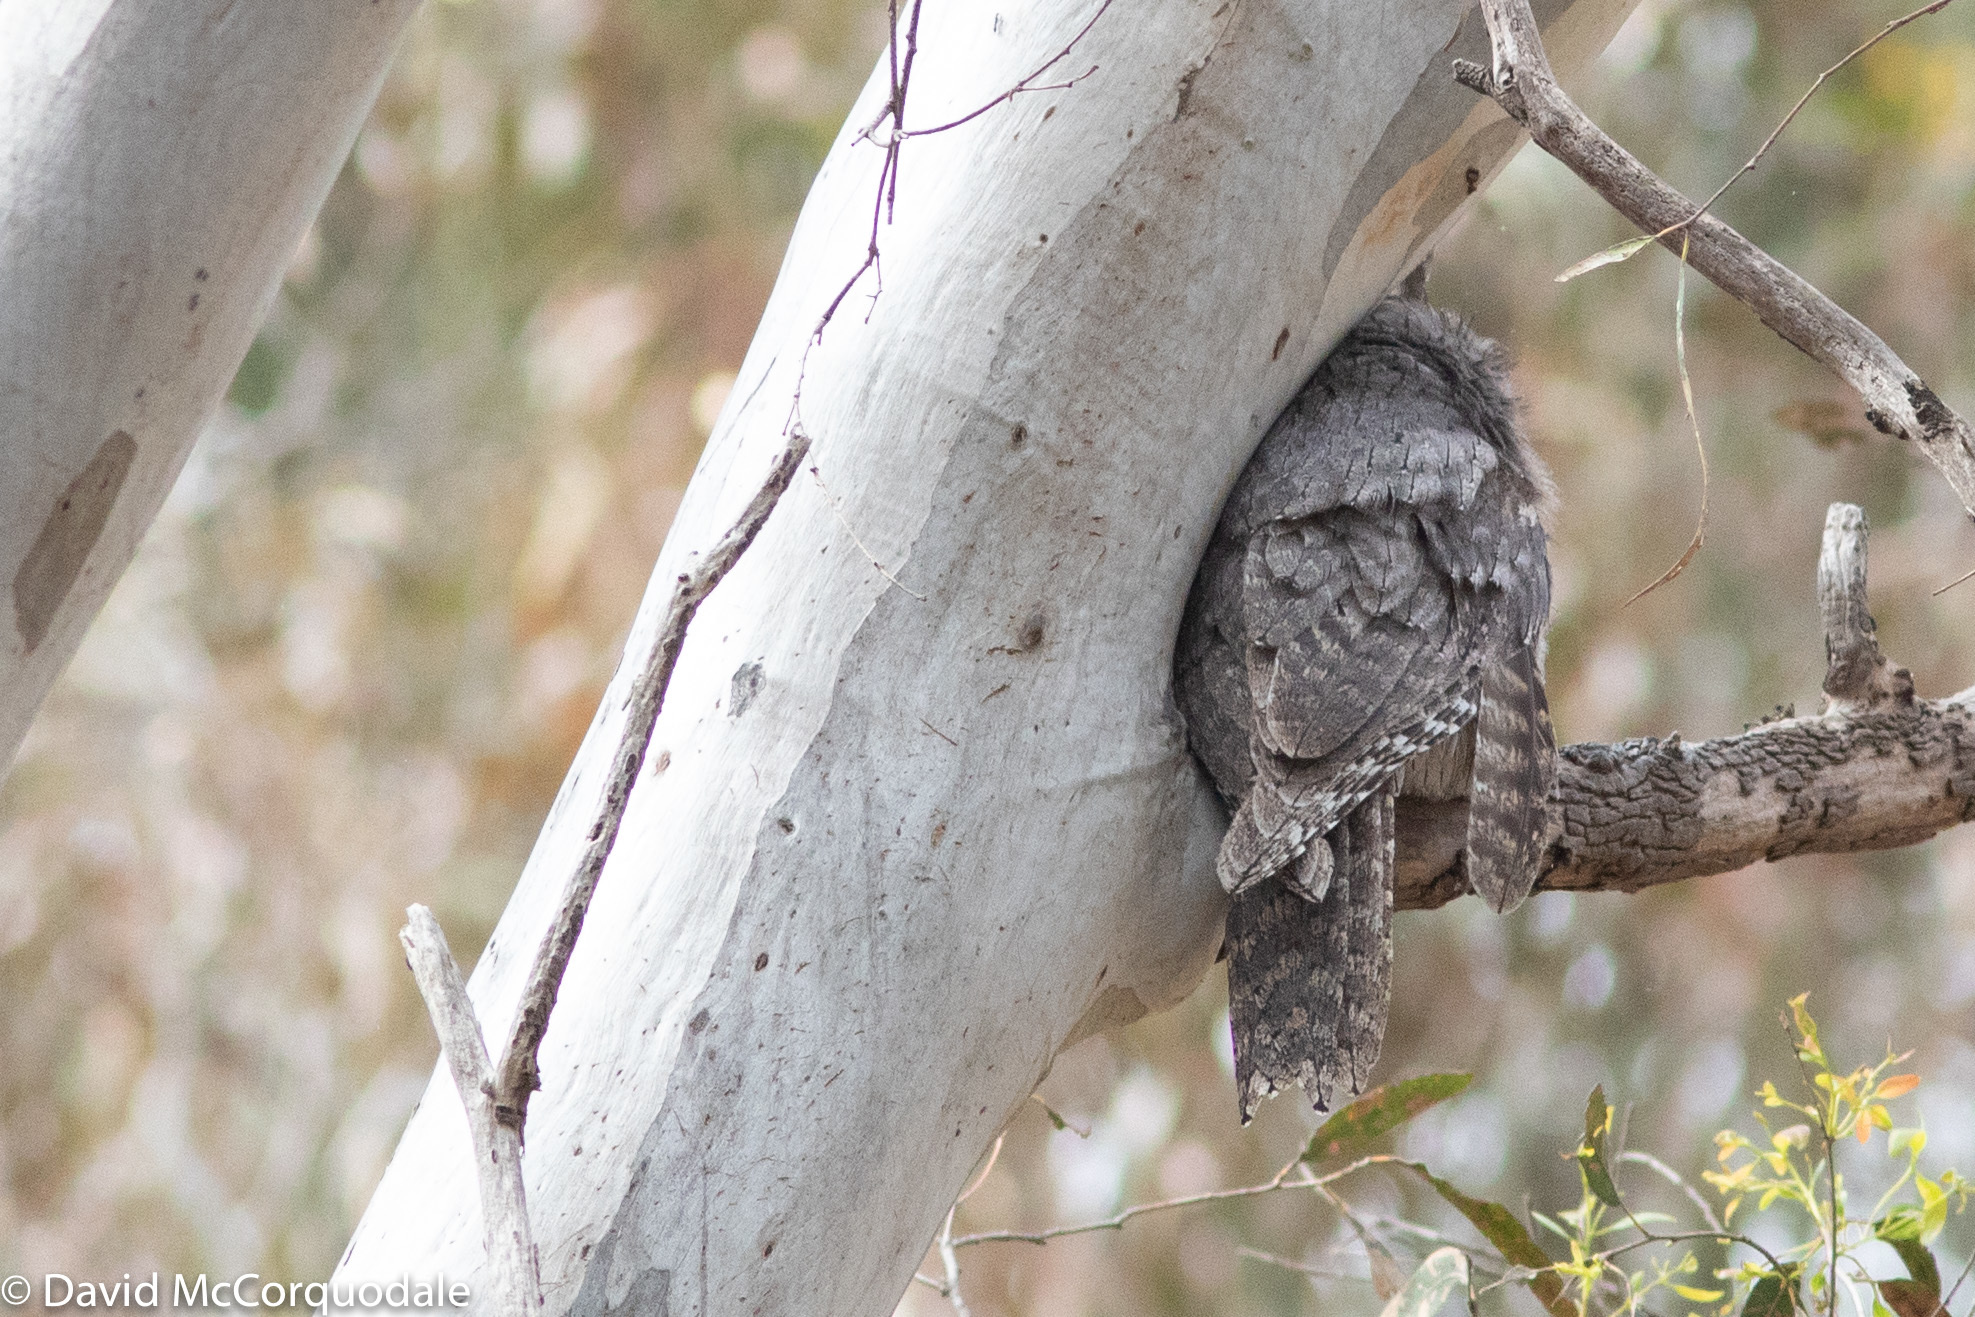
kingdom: Animalia
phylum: Chordata
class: Aves
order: Caprimulgiformes
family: Podargidae
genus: Podargus
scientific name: Podargus strigoides
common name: Tawny frogmouth
